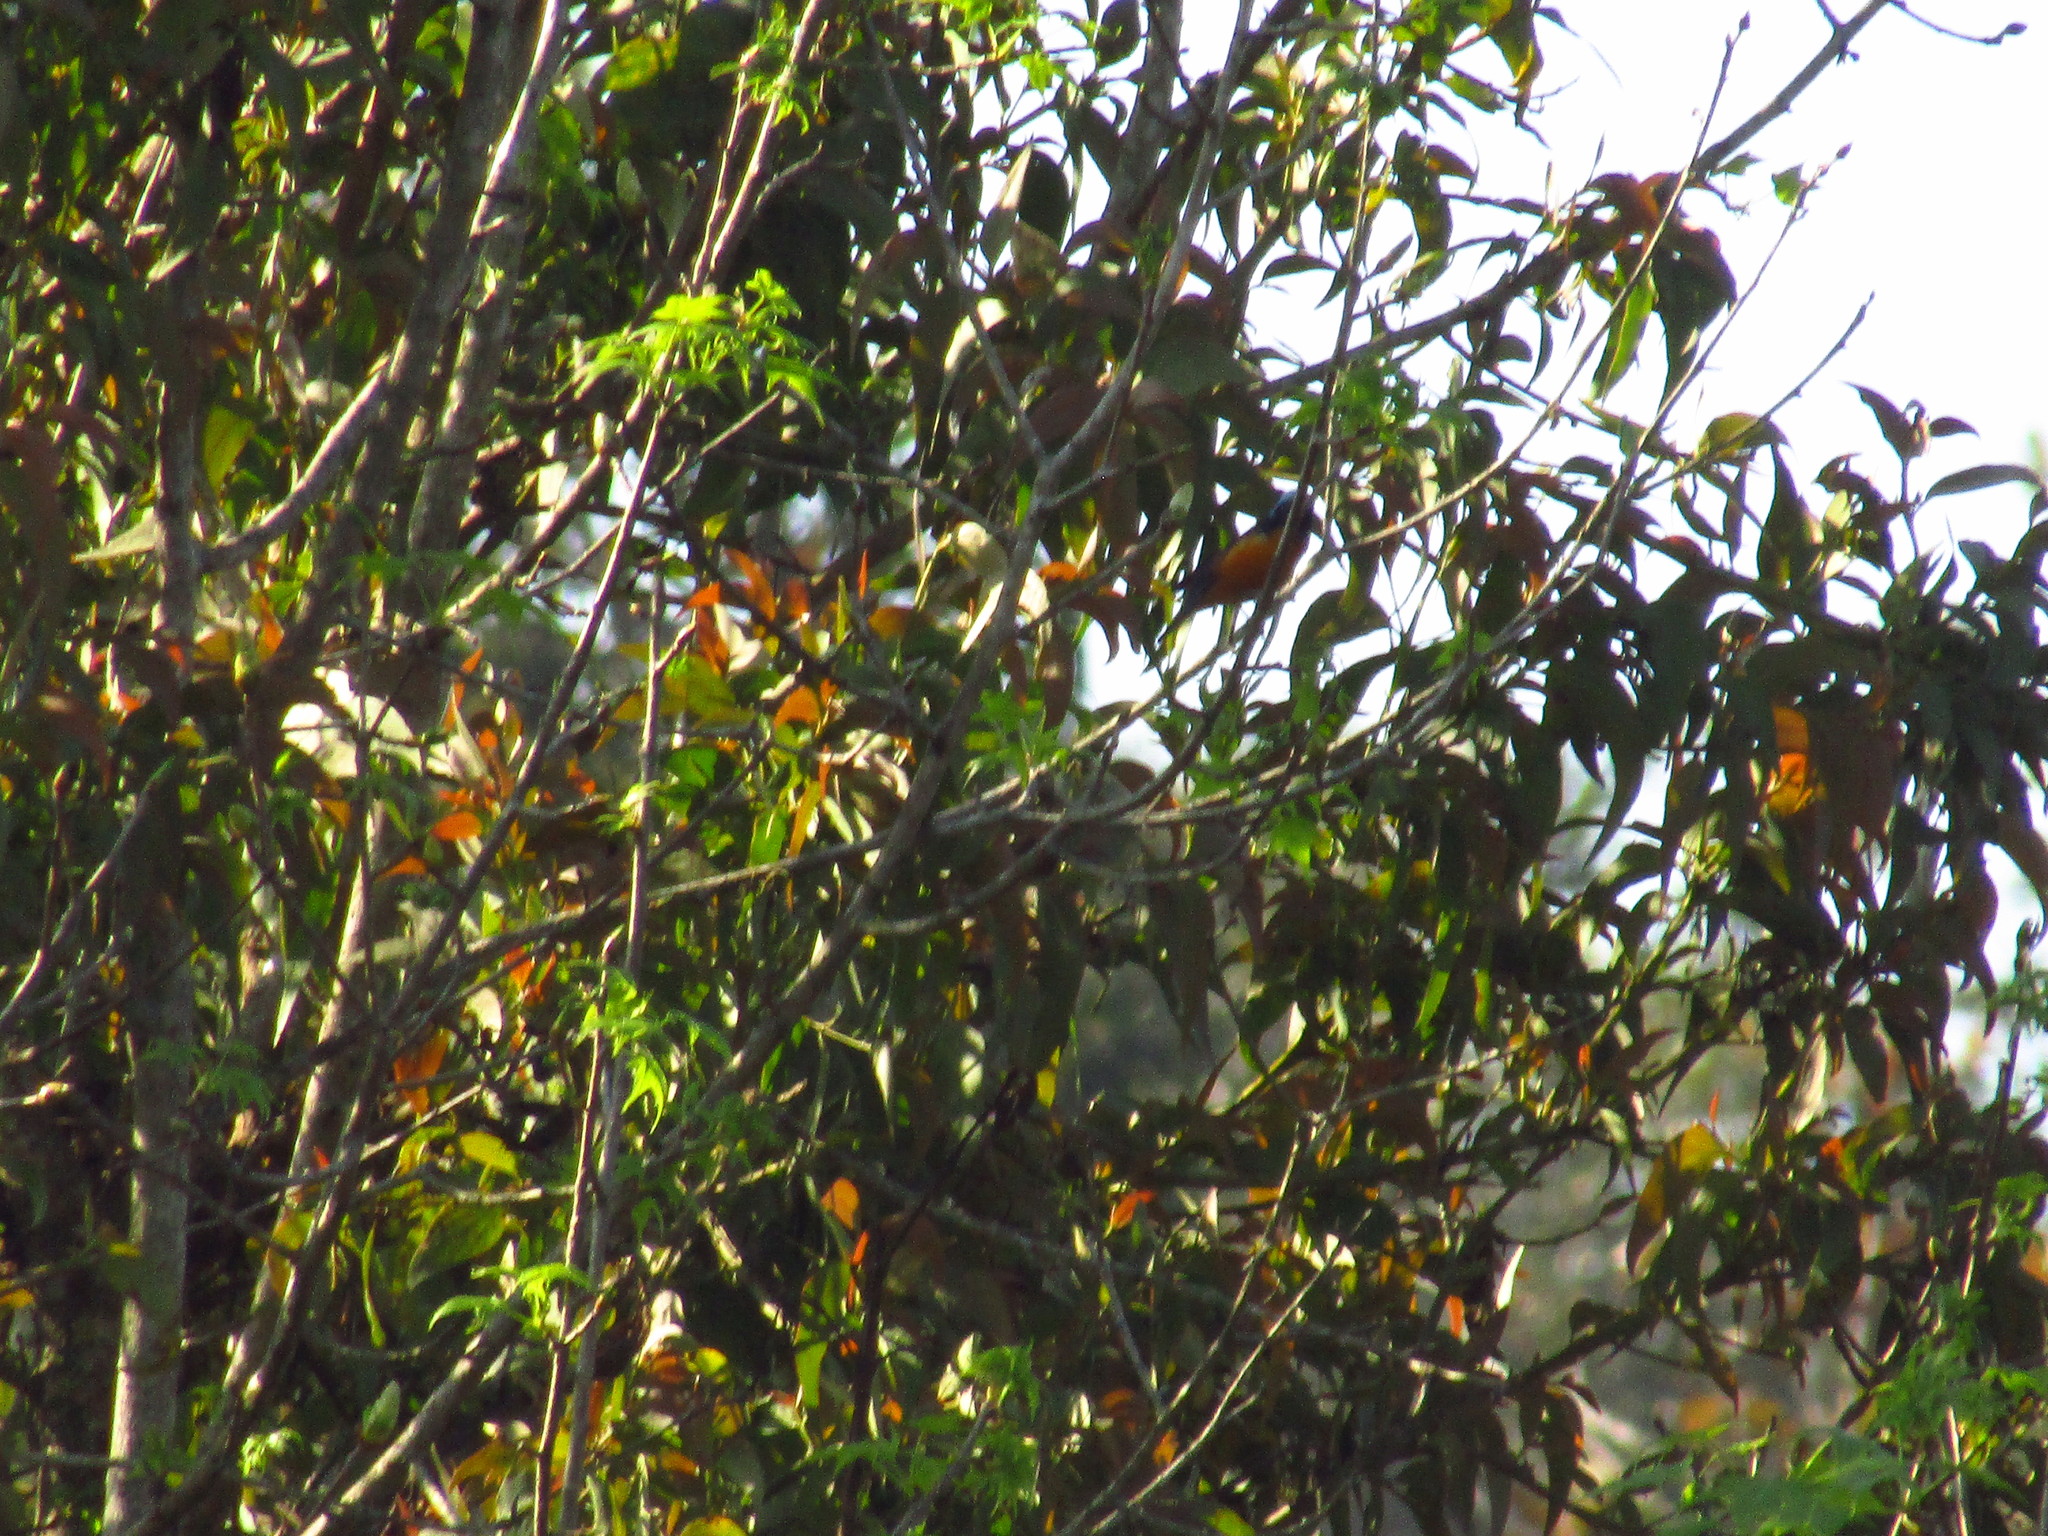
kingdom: Animalia
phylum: Chordata
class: Aves
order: Passeriformes
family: Fringillidae
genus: Euphonia
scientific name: Euphonia elegantissima
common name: Elegant euphonia
